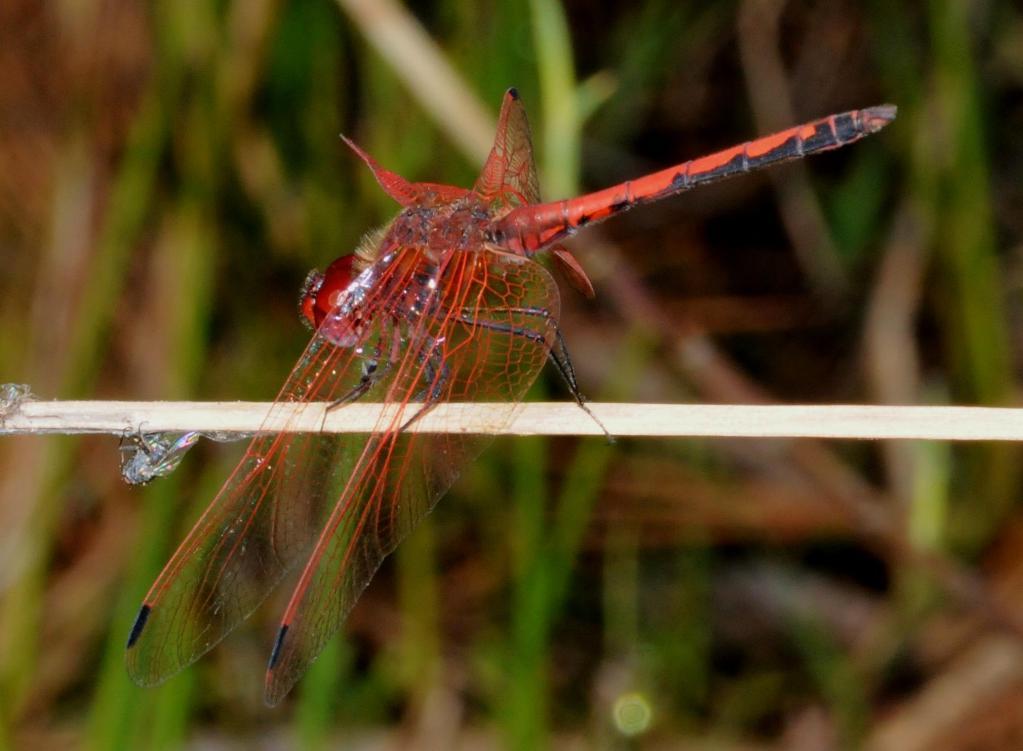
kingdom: Animalia
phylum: Arthropoda
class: Insecta
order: Odonata
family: Libellulidae
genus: Trithemis
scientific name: Trithemis arteriosa
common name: Red-veined dropwing
